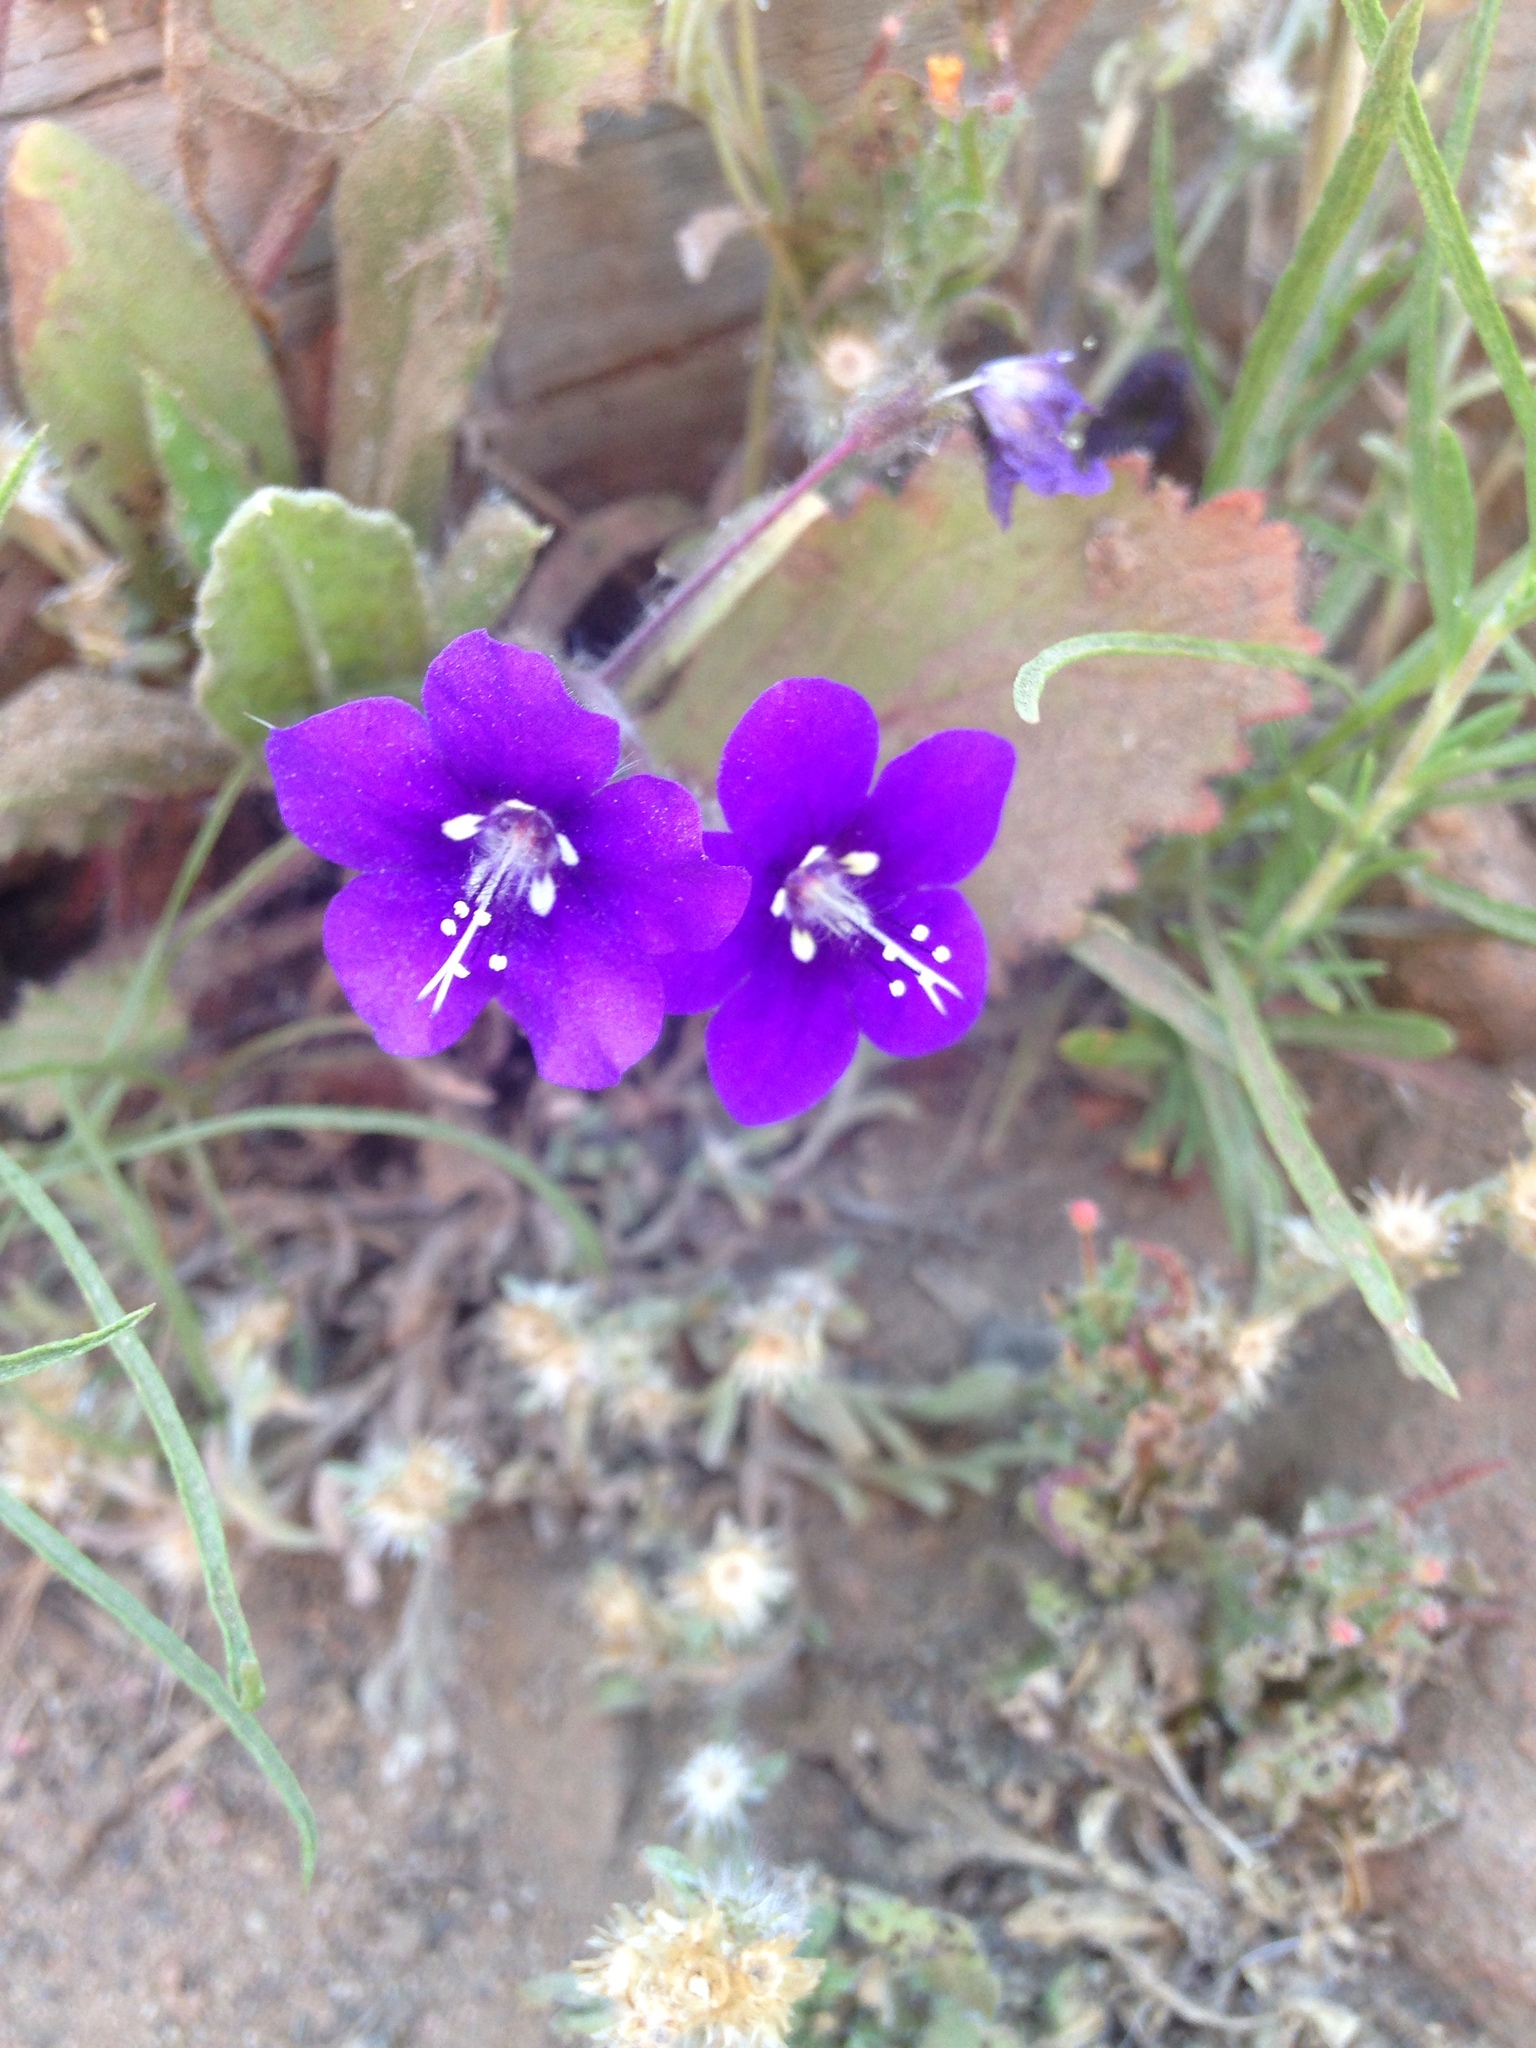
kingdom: Plantae
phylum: Tracheophyta
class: Magnoliopsida
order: Boraginales
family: Hydrophyllaceae
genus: Phacelia
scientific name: Phacelia parryi
